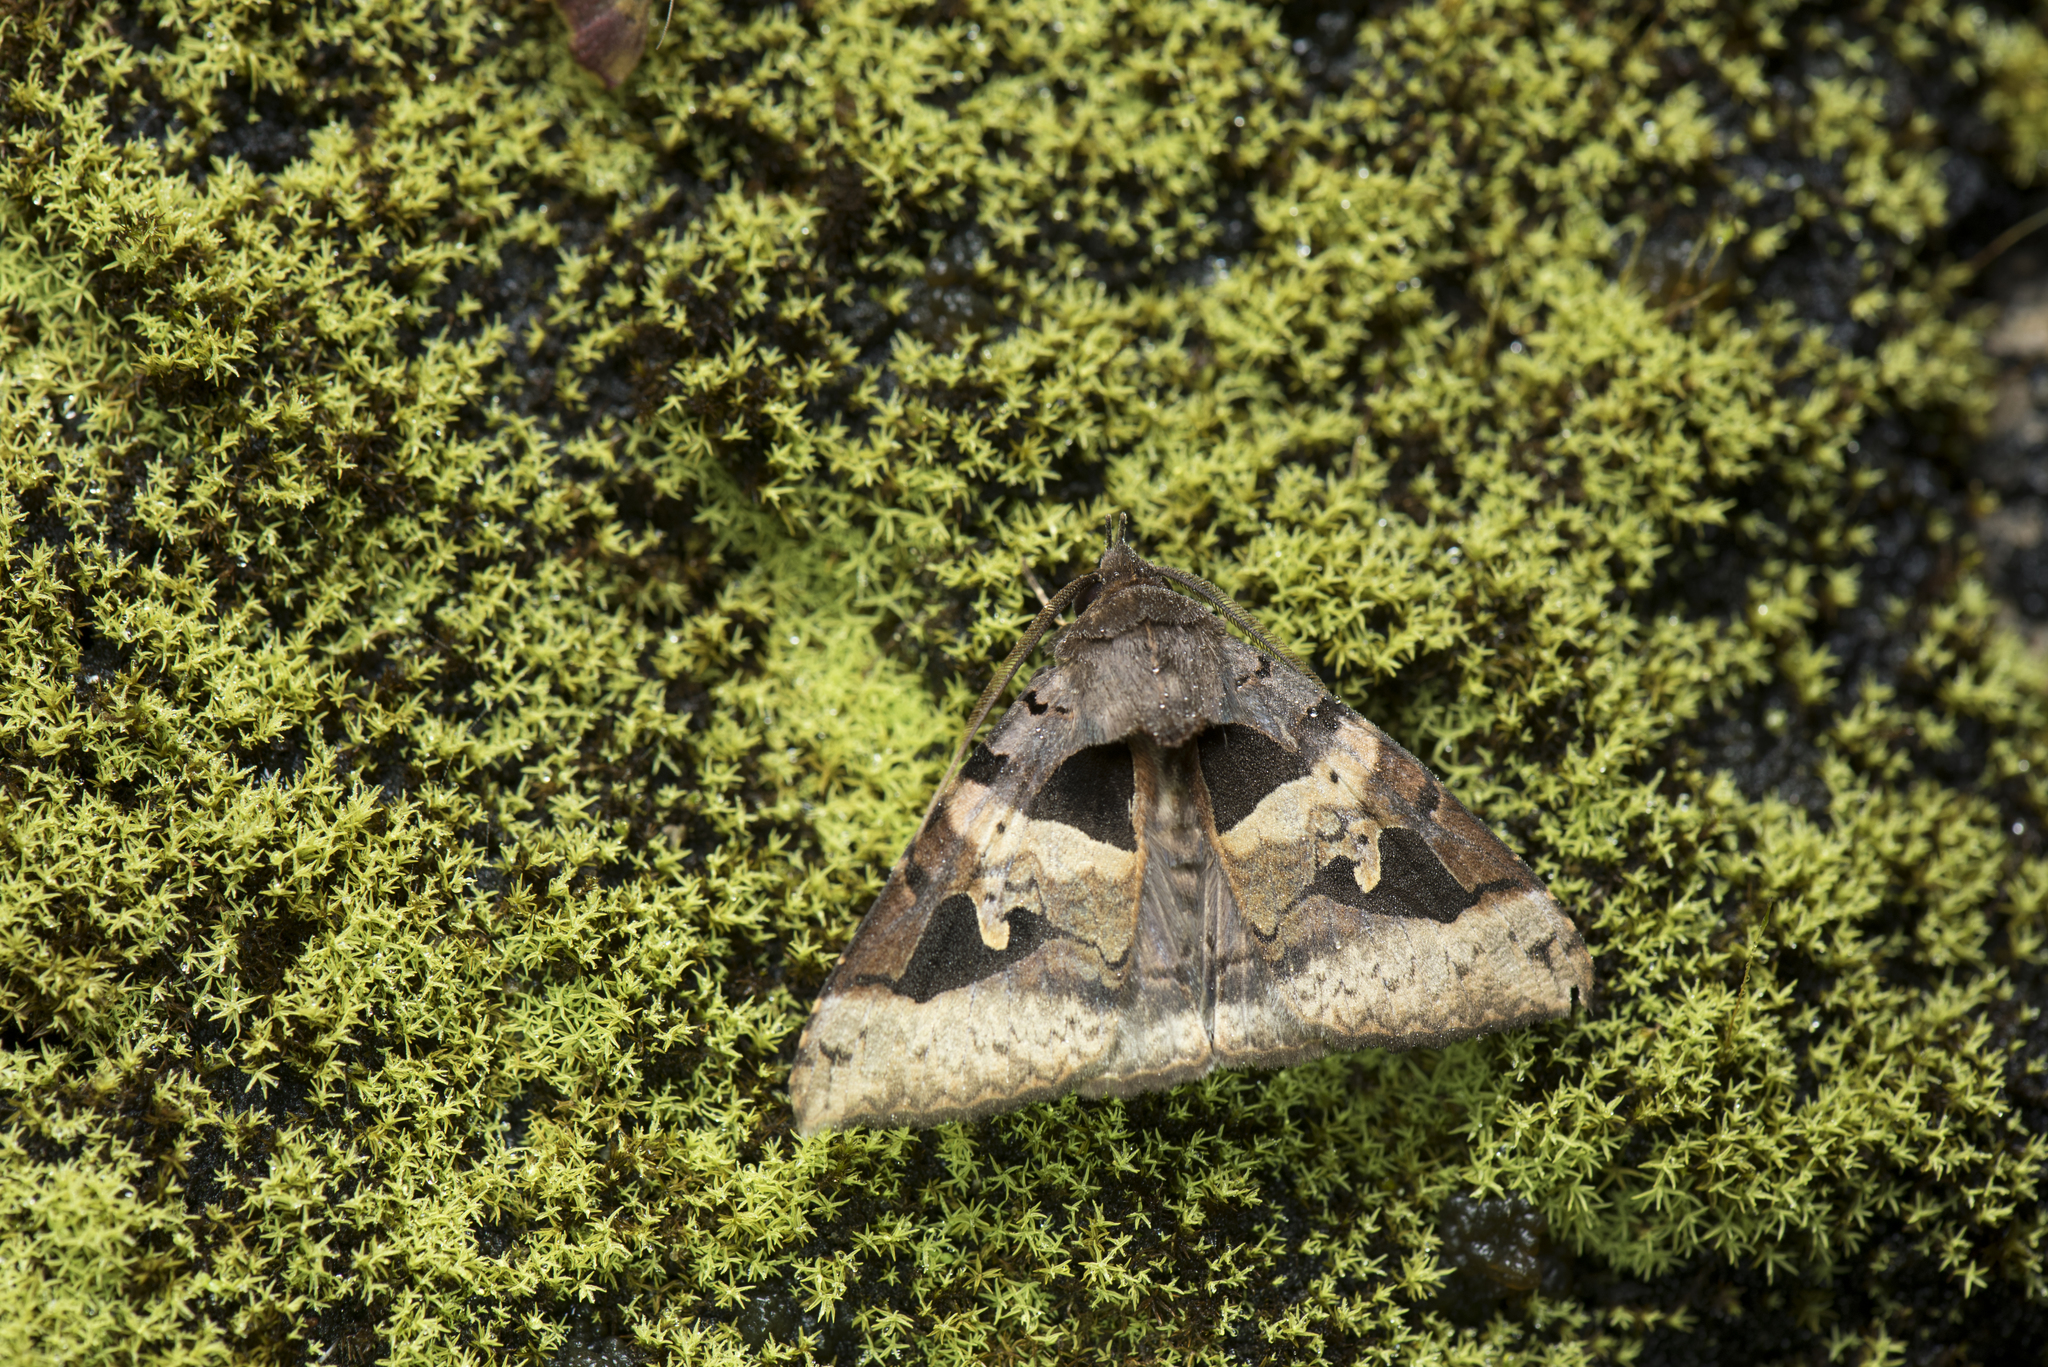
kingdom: Animalia
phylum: Arthropoda
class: Insecta
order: Lepidoptera
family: Erebidae
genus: Avatha
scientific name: Avatha chinensis
